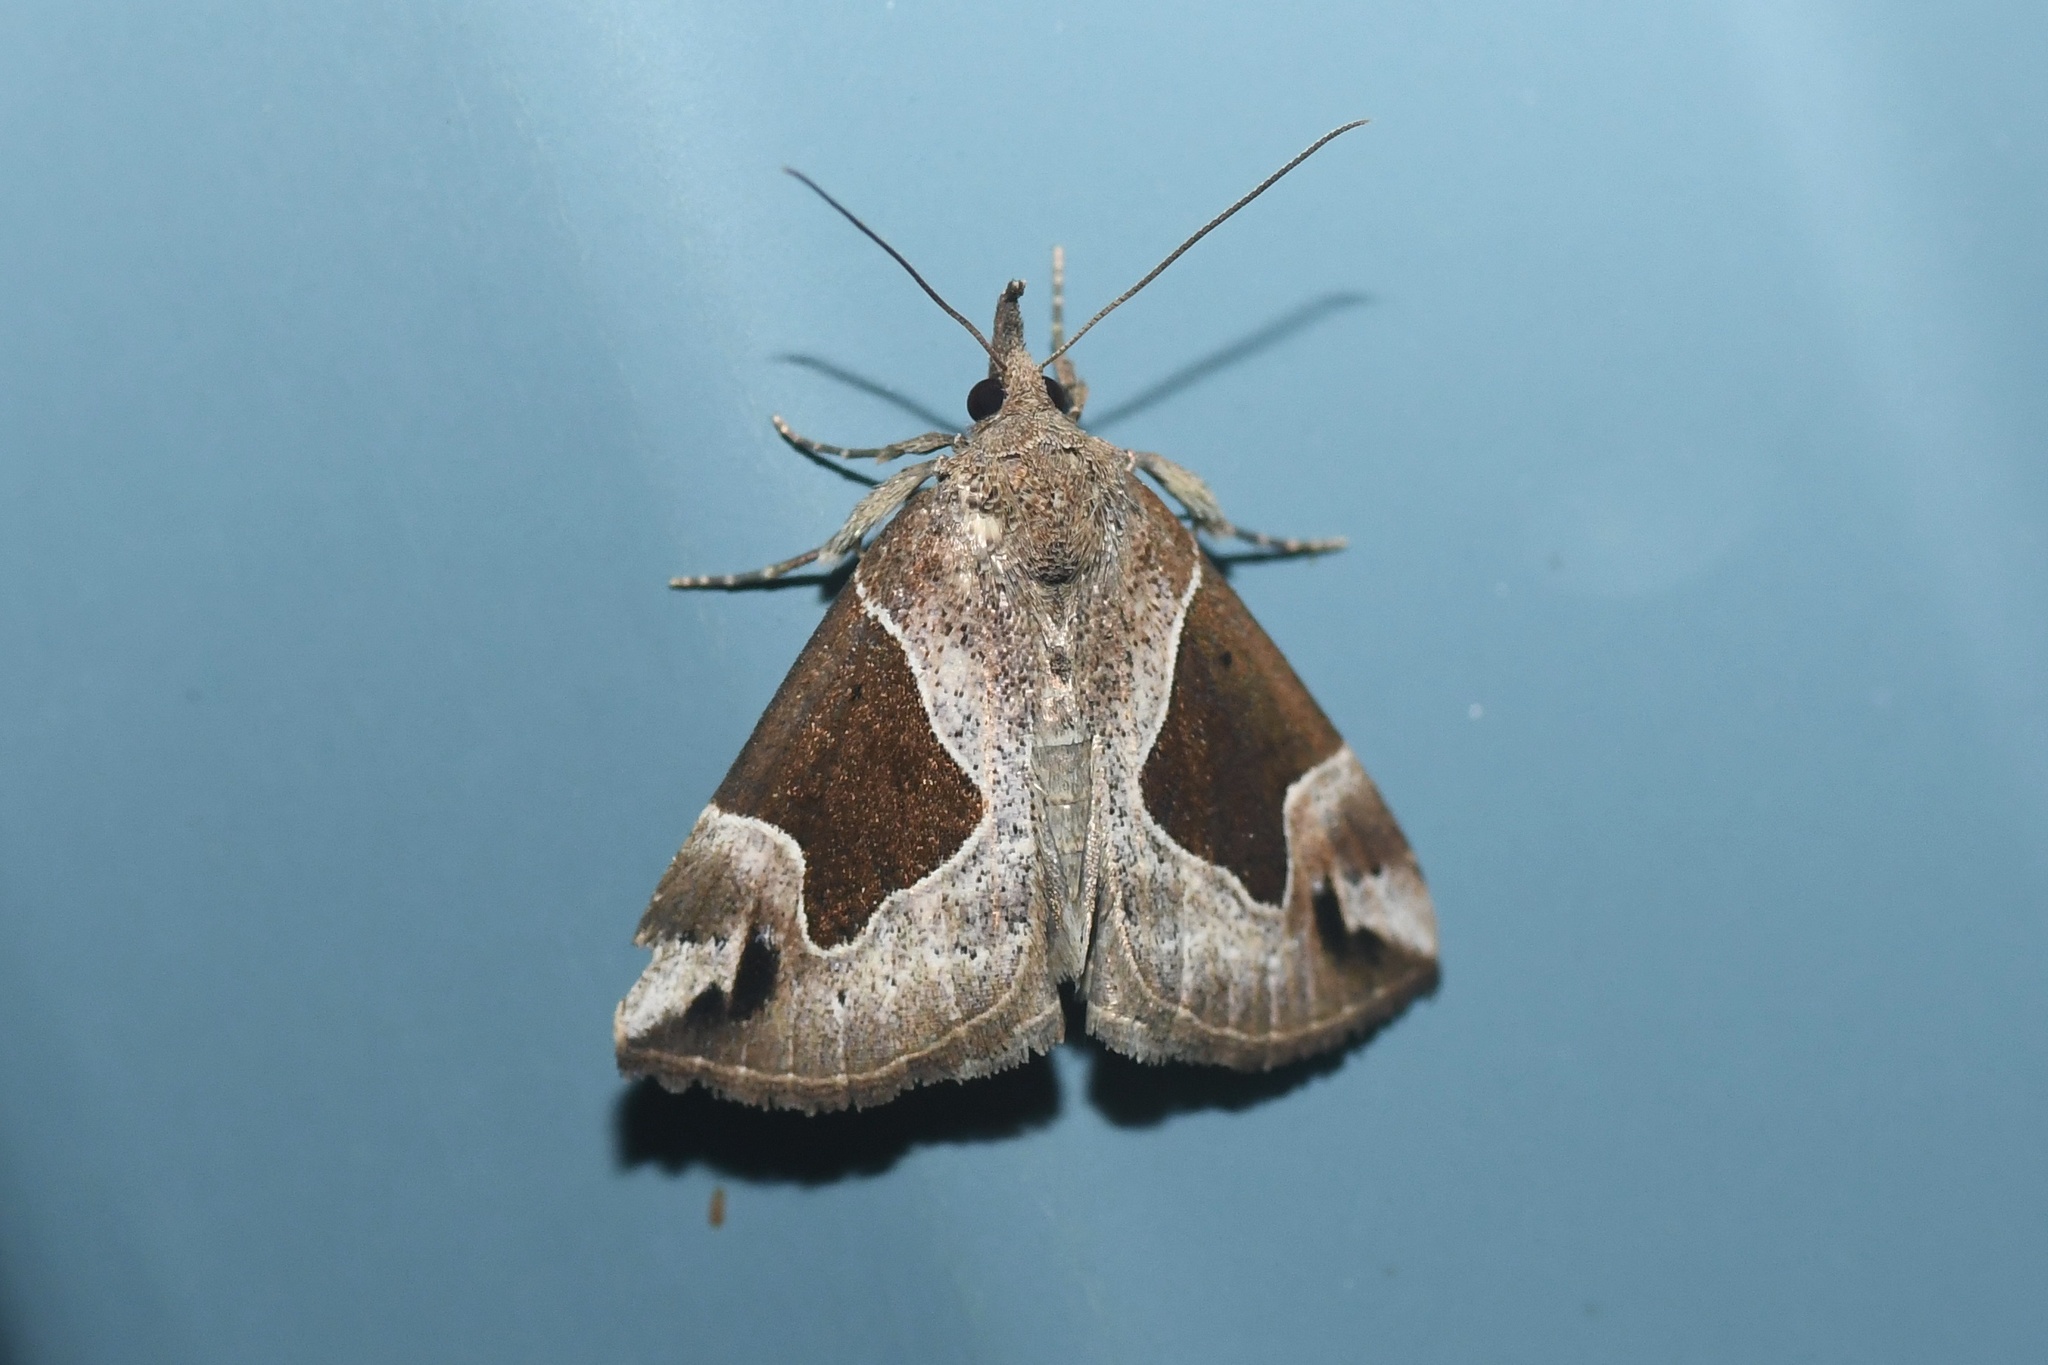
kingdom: Animalia
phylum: Arthropoda
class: Insecta
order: Lepidoptera
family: Erebidae
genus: Hypena
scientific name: Hypena manalis
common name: Flowing-line bomolocha moth
